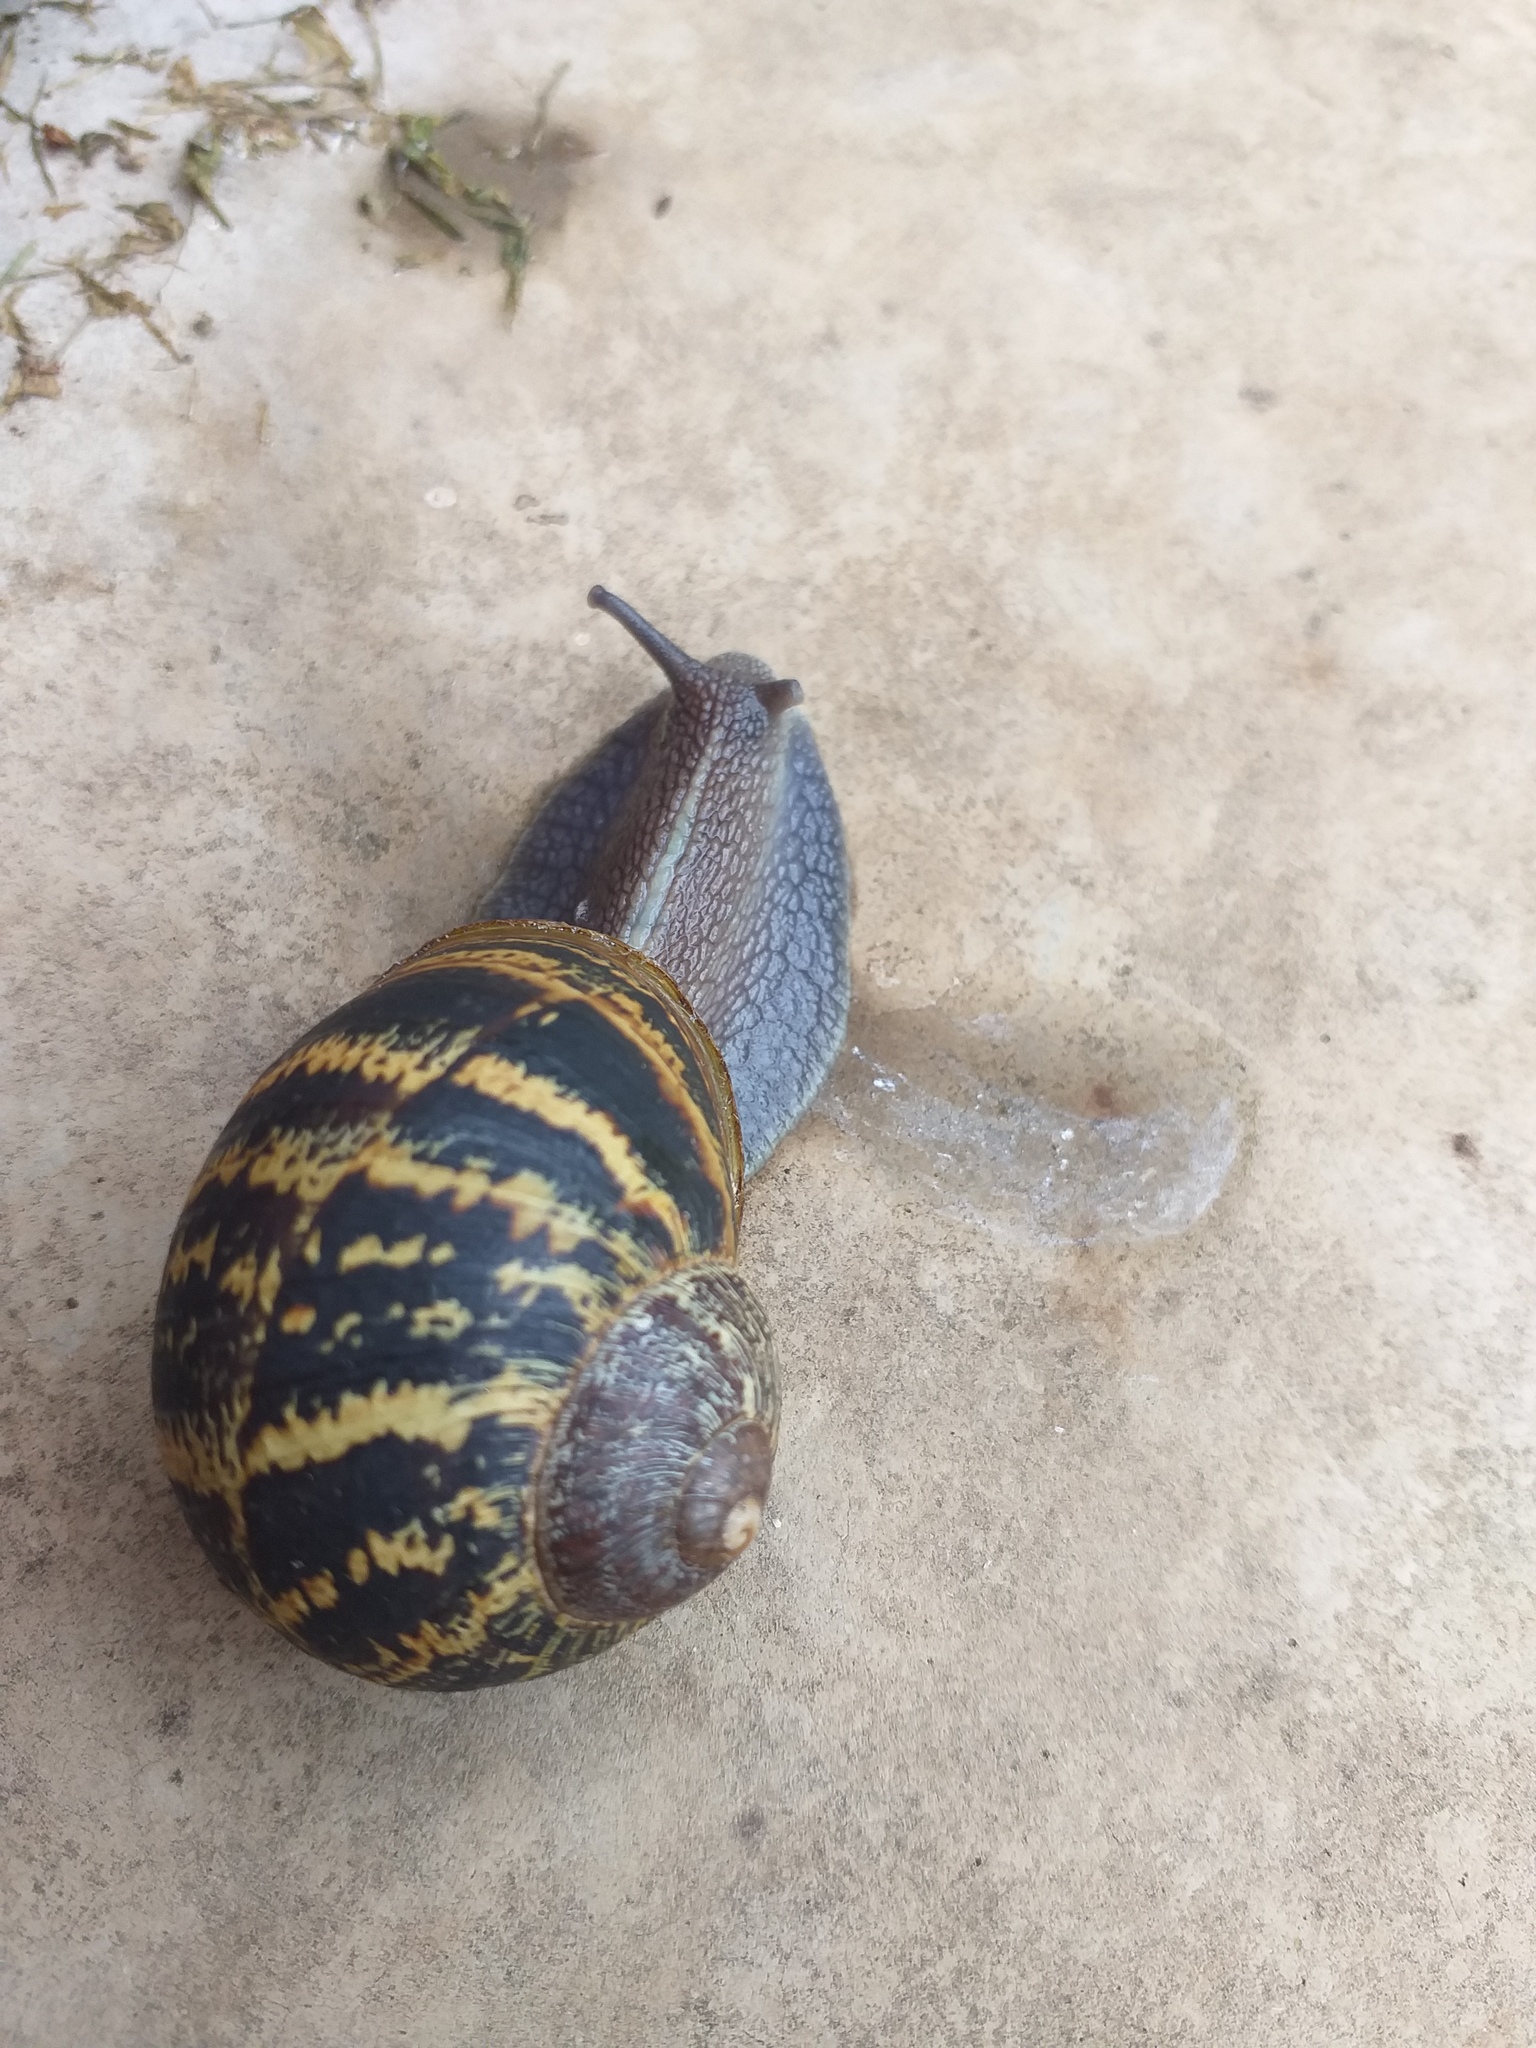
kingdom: Animalia
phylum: Mollusca
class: Gastropoda
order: Stylommatophora
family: Helicidae
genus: Cornu
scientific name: Cornu aspersum
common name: Brown garden snail
